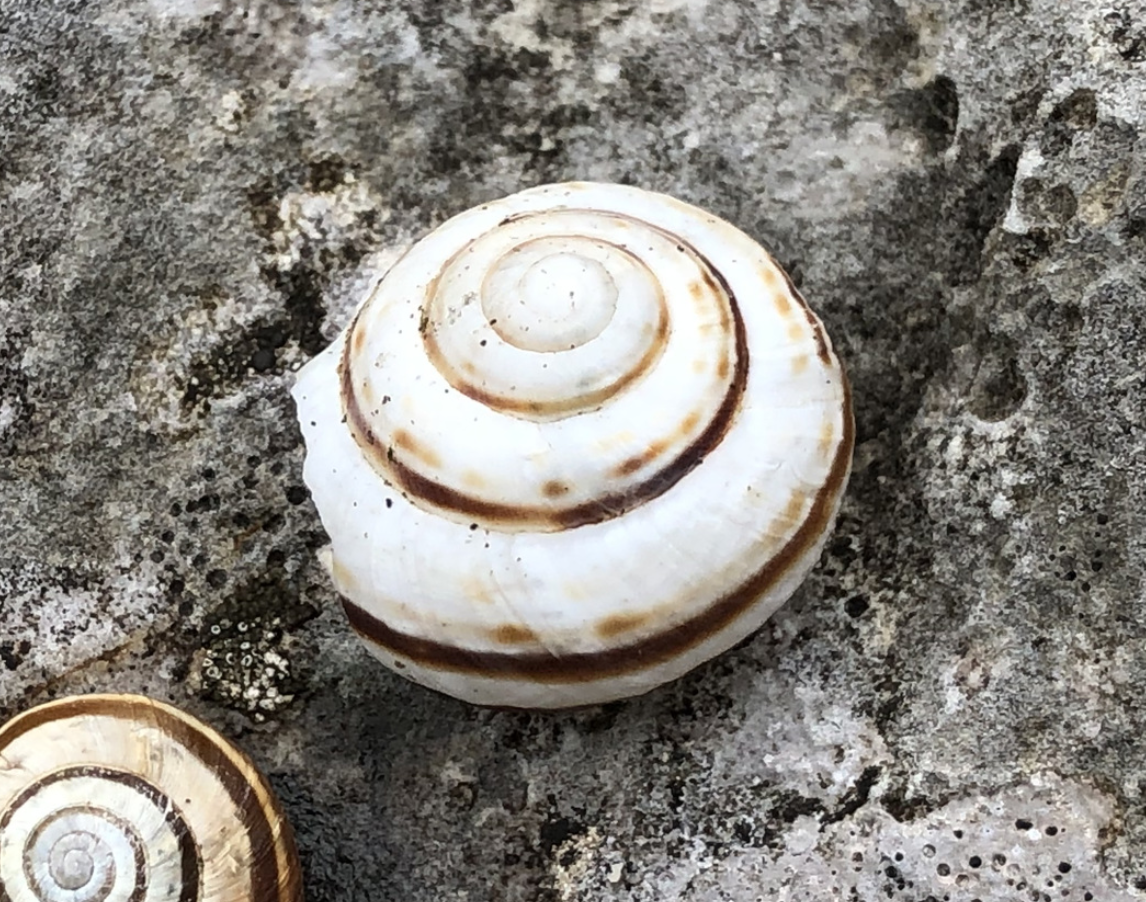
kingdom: Animalia
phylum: Mollusca
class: Gastropoda
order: Stylommatophora
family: Helicidae
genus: Macularia
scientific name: Macularia sylvatica
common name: Hélice sylvatique
